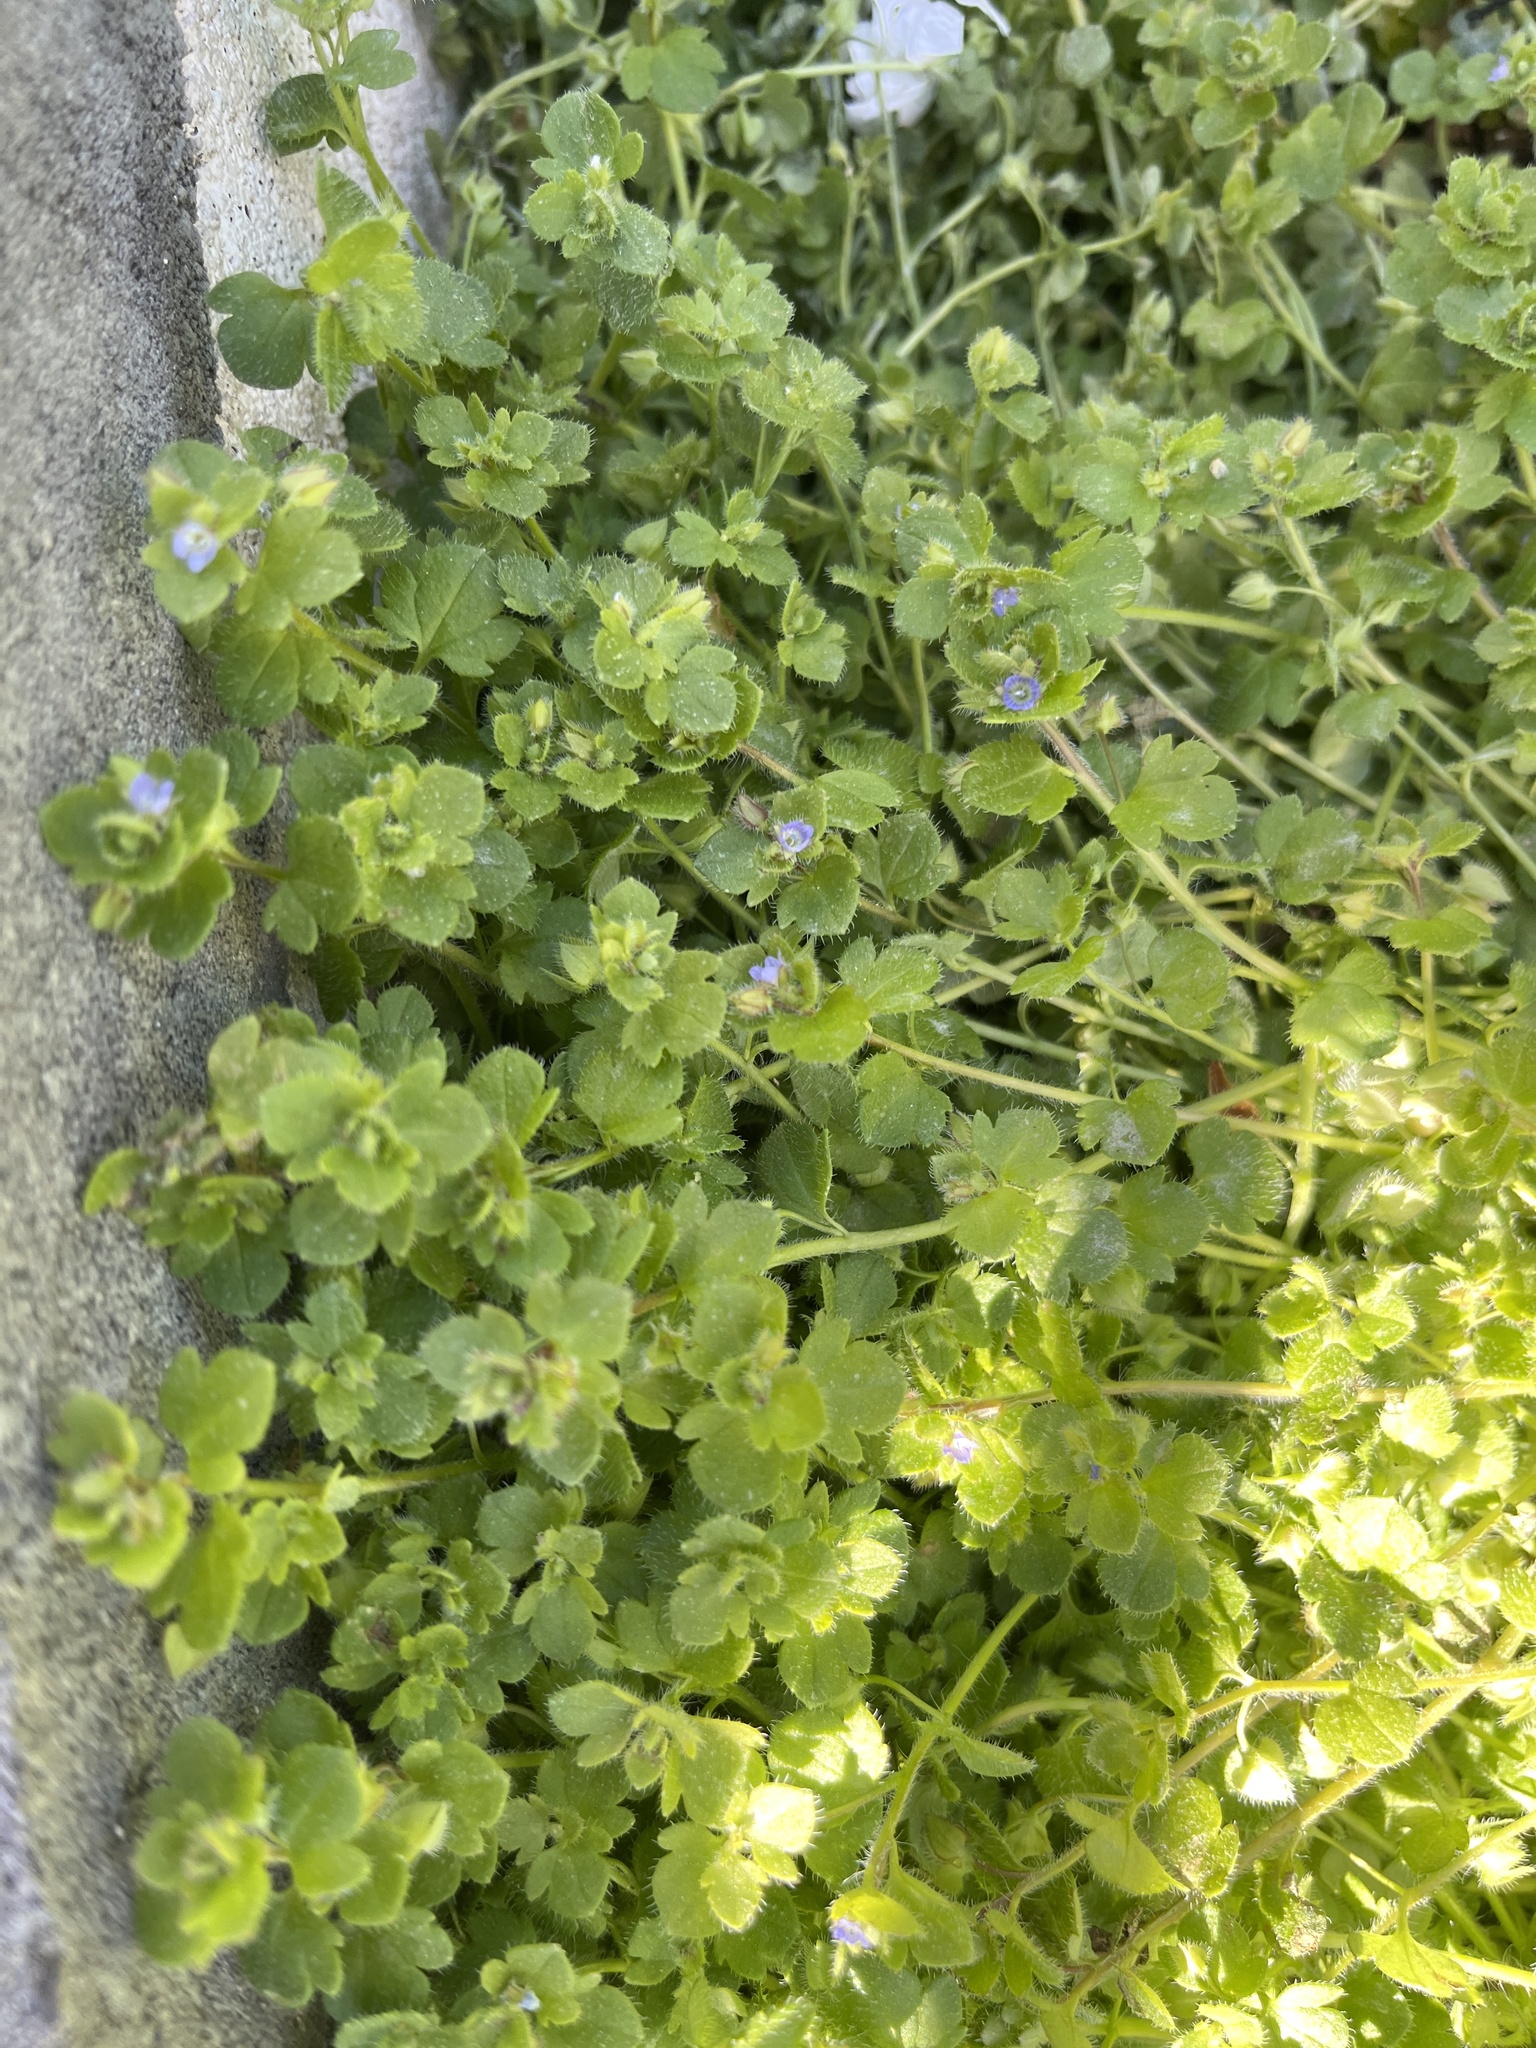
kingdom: Plantae
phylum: Tracheophyta
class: Magnoliopsida
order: Lamiales
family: Plantaginaceae
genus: Veronica
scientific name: Veronica hederifolia
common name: Ivy-leaved speedwell
